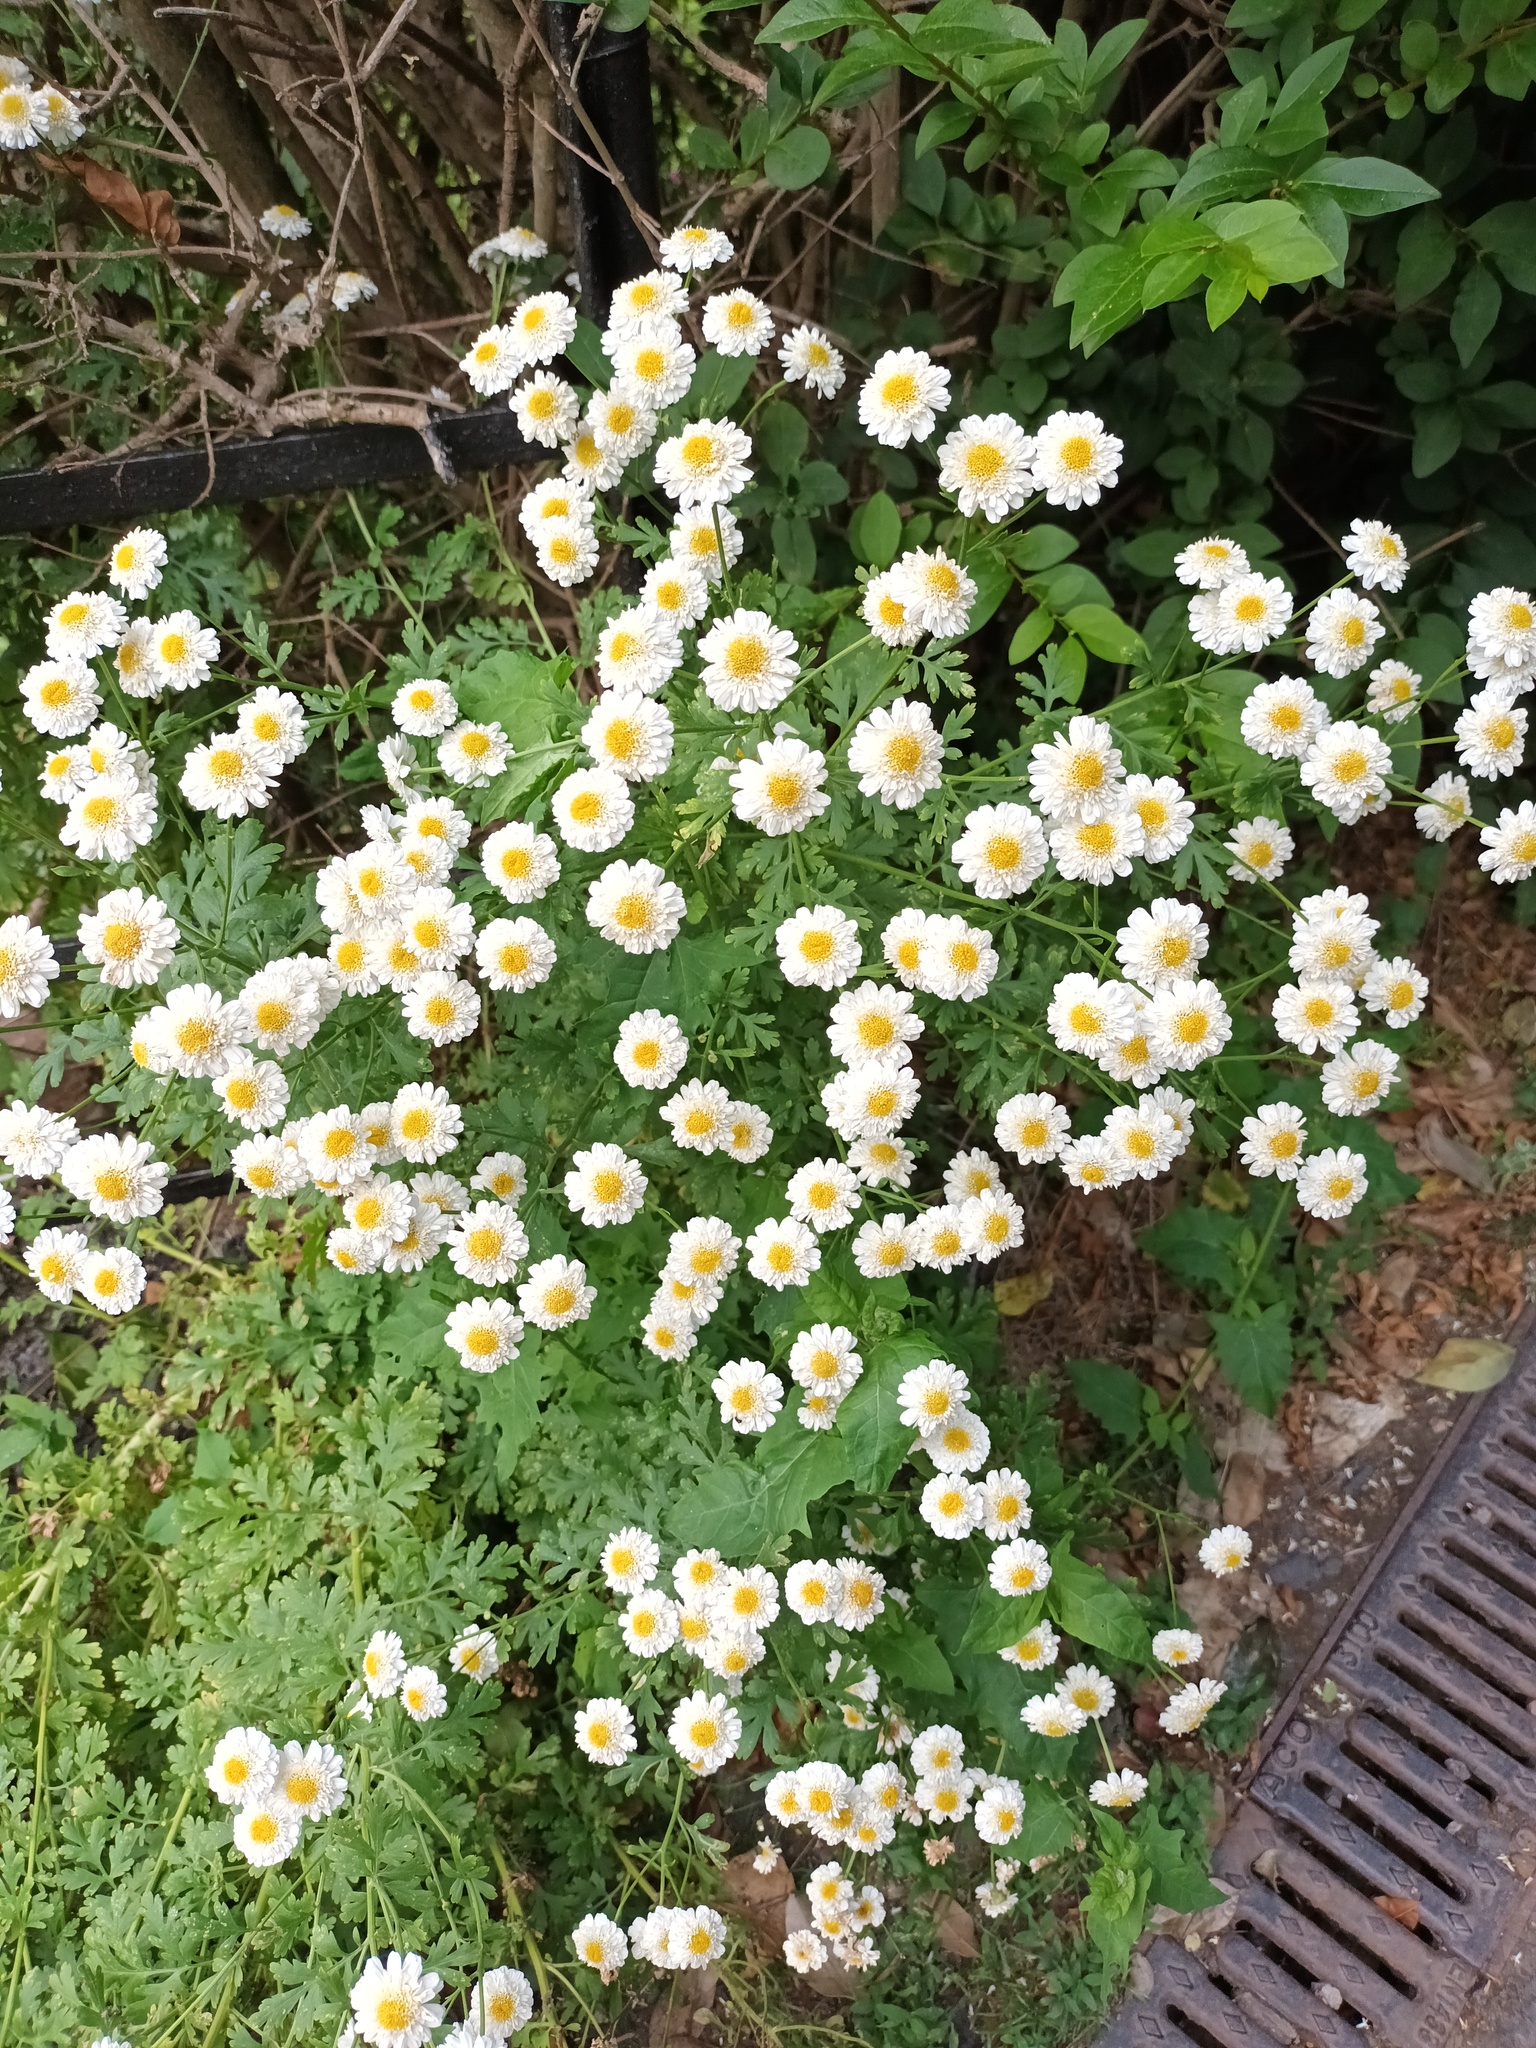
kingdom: Plantae
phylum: Tracheophyta
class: Magnoliopsida
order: Asterales
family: Asteraceae
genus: Tanacetum
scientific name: Tanacetum parthenium
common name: Feverfew
